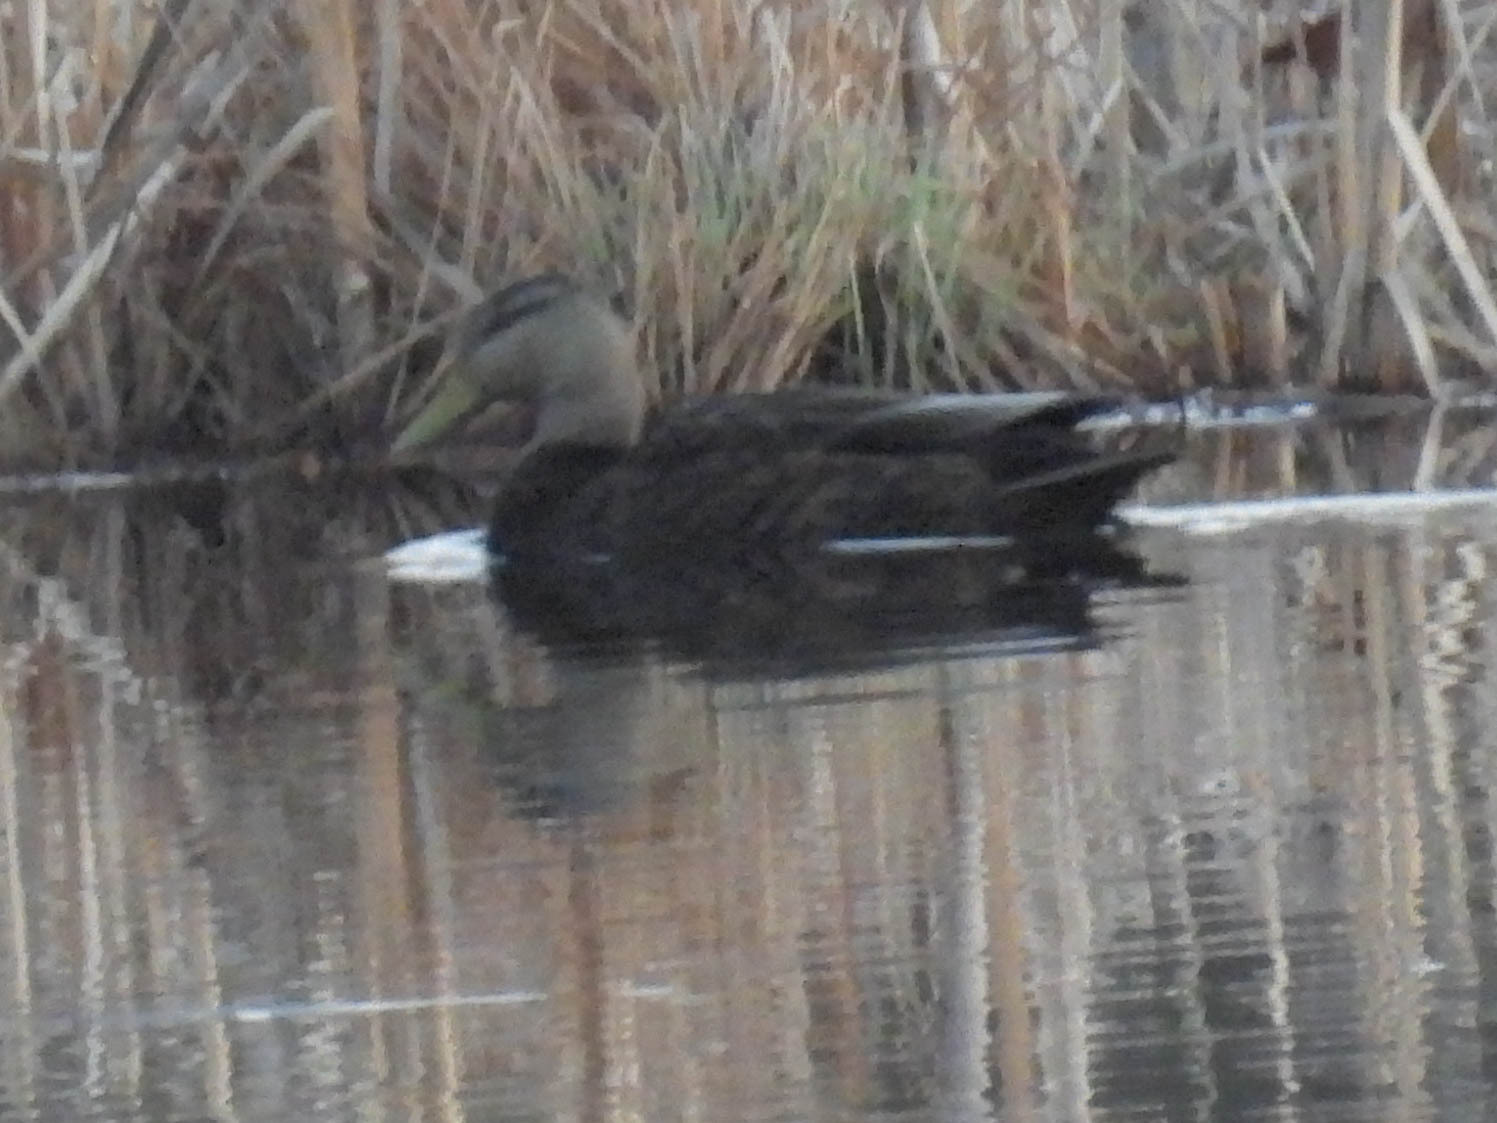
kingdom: Animalia
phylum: Chordata
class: Aves
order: Anseriformes
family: Anatidae
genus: Anas
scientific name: Anas rubripes
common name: American black duck
